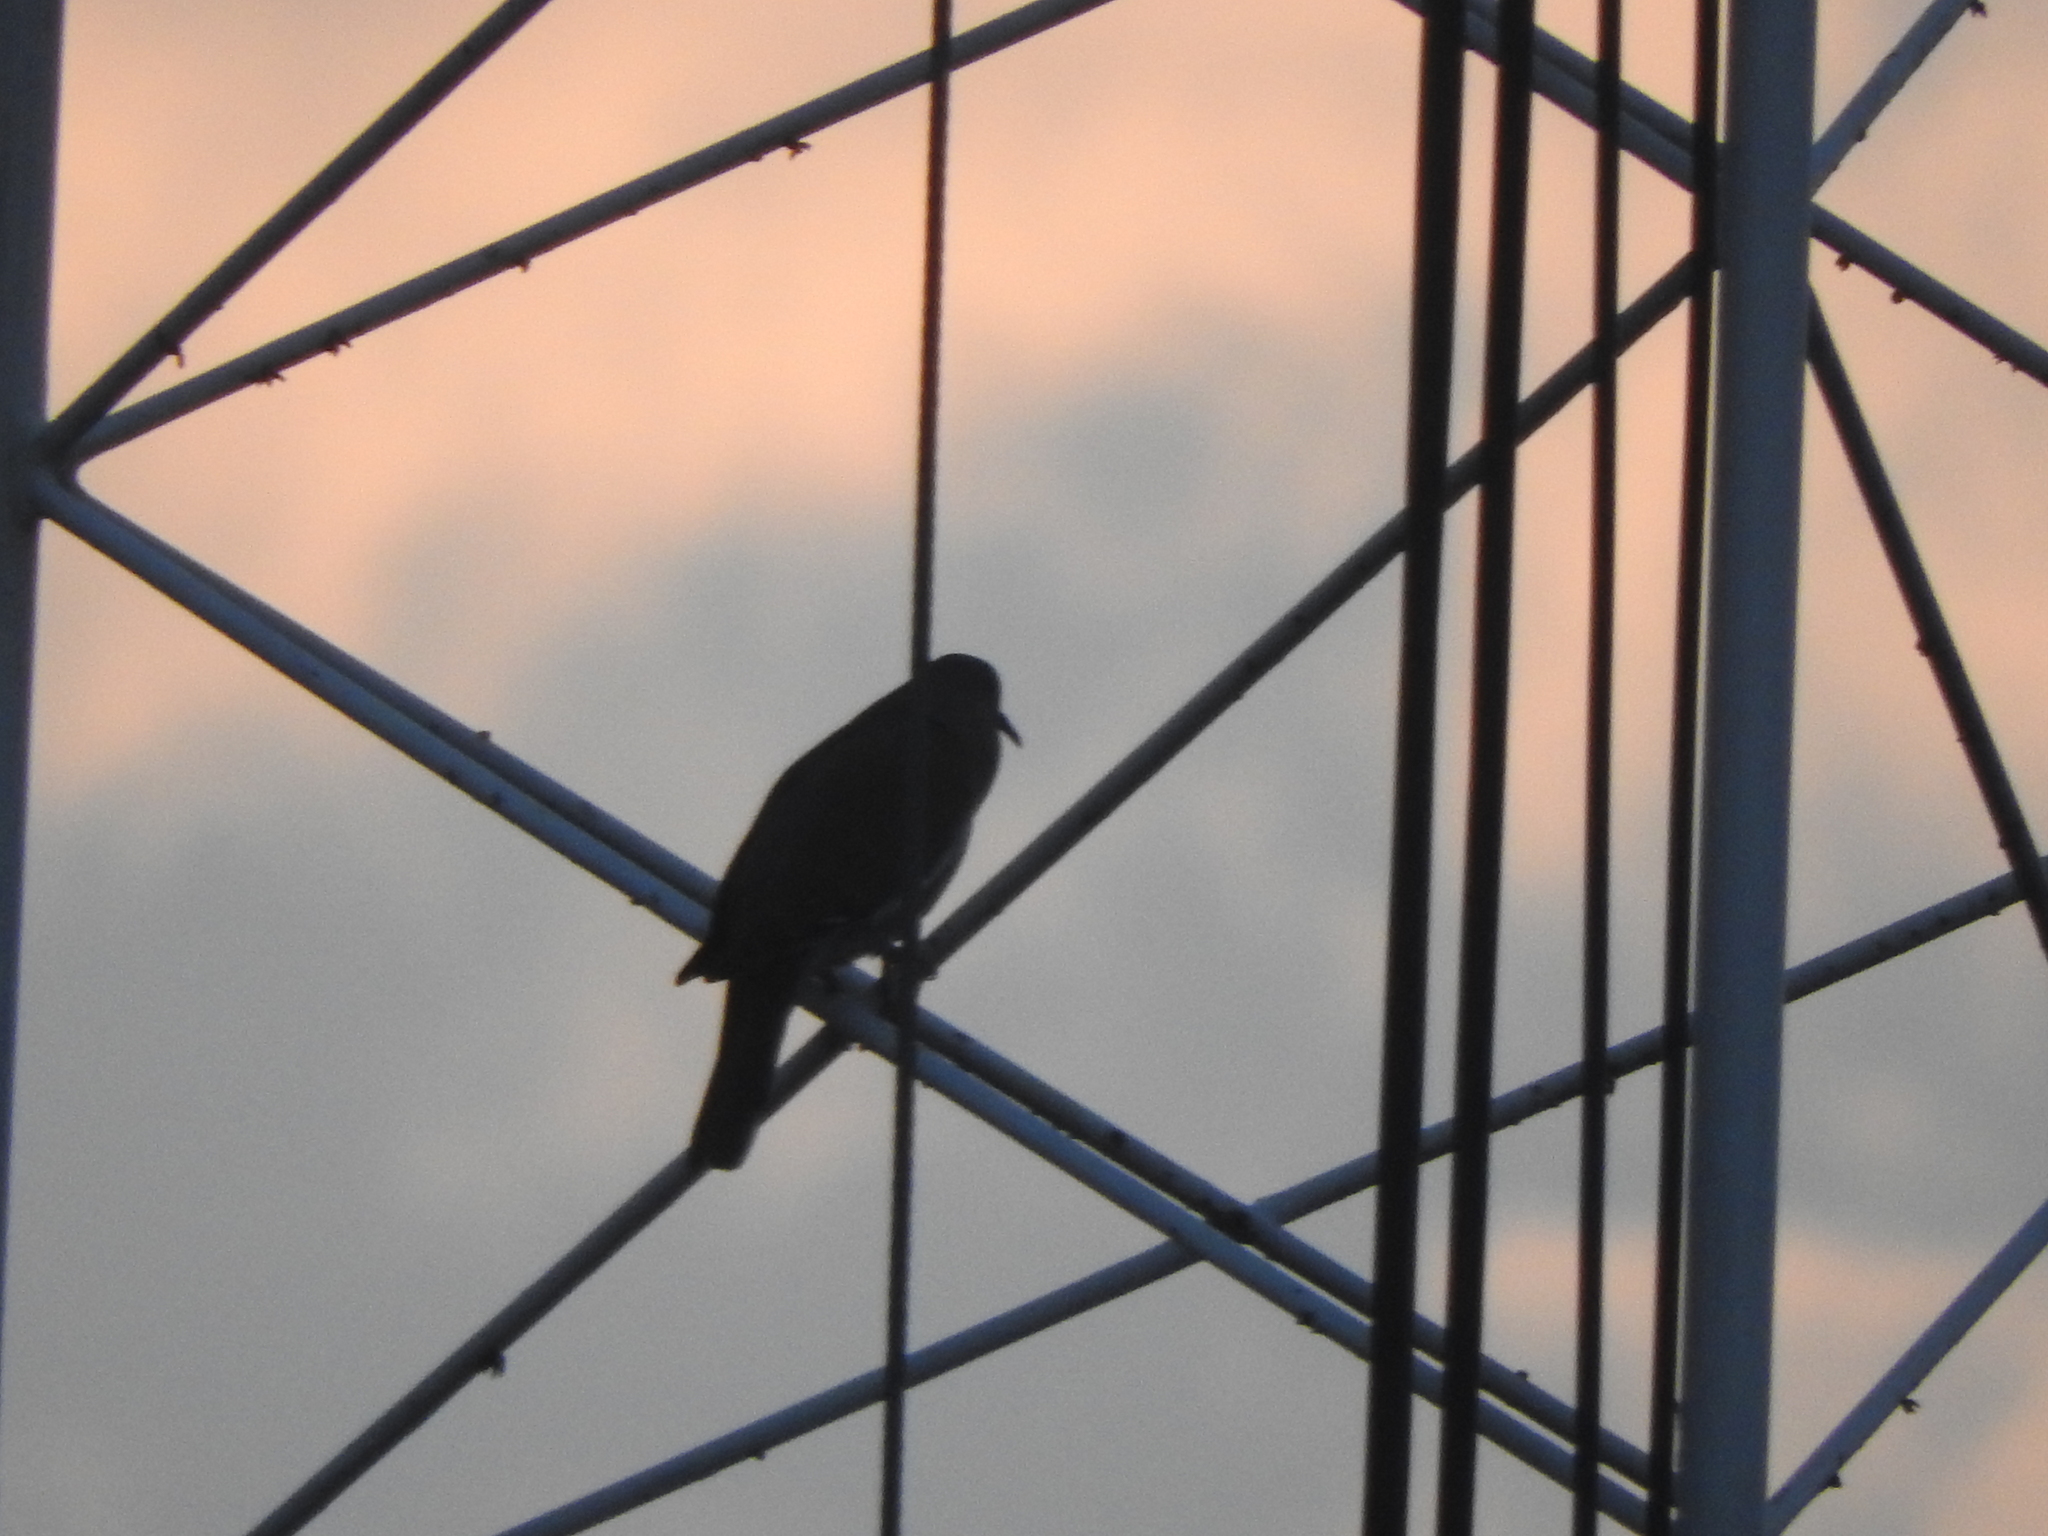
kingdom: Animalia
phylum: Chordata
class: Aves
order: Columbiformes
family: Columbidae
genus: Zenaida
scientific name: Zenaida asiatica
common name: White-winged dove
